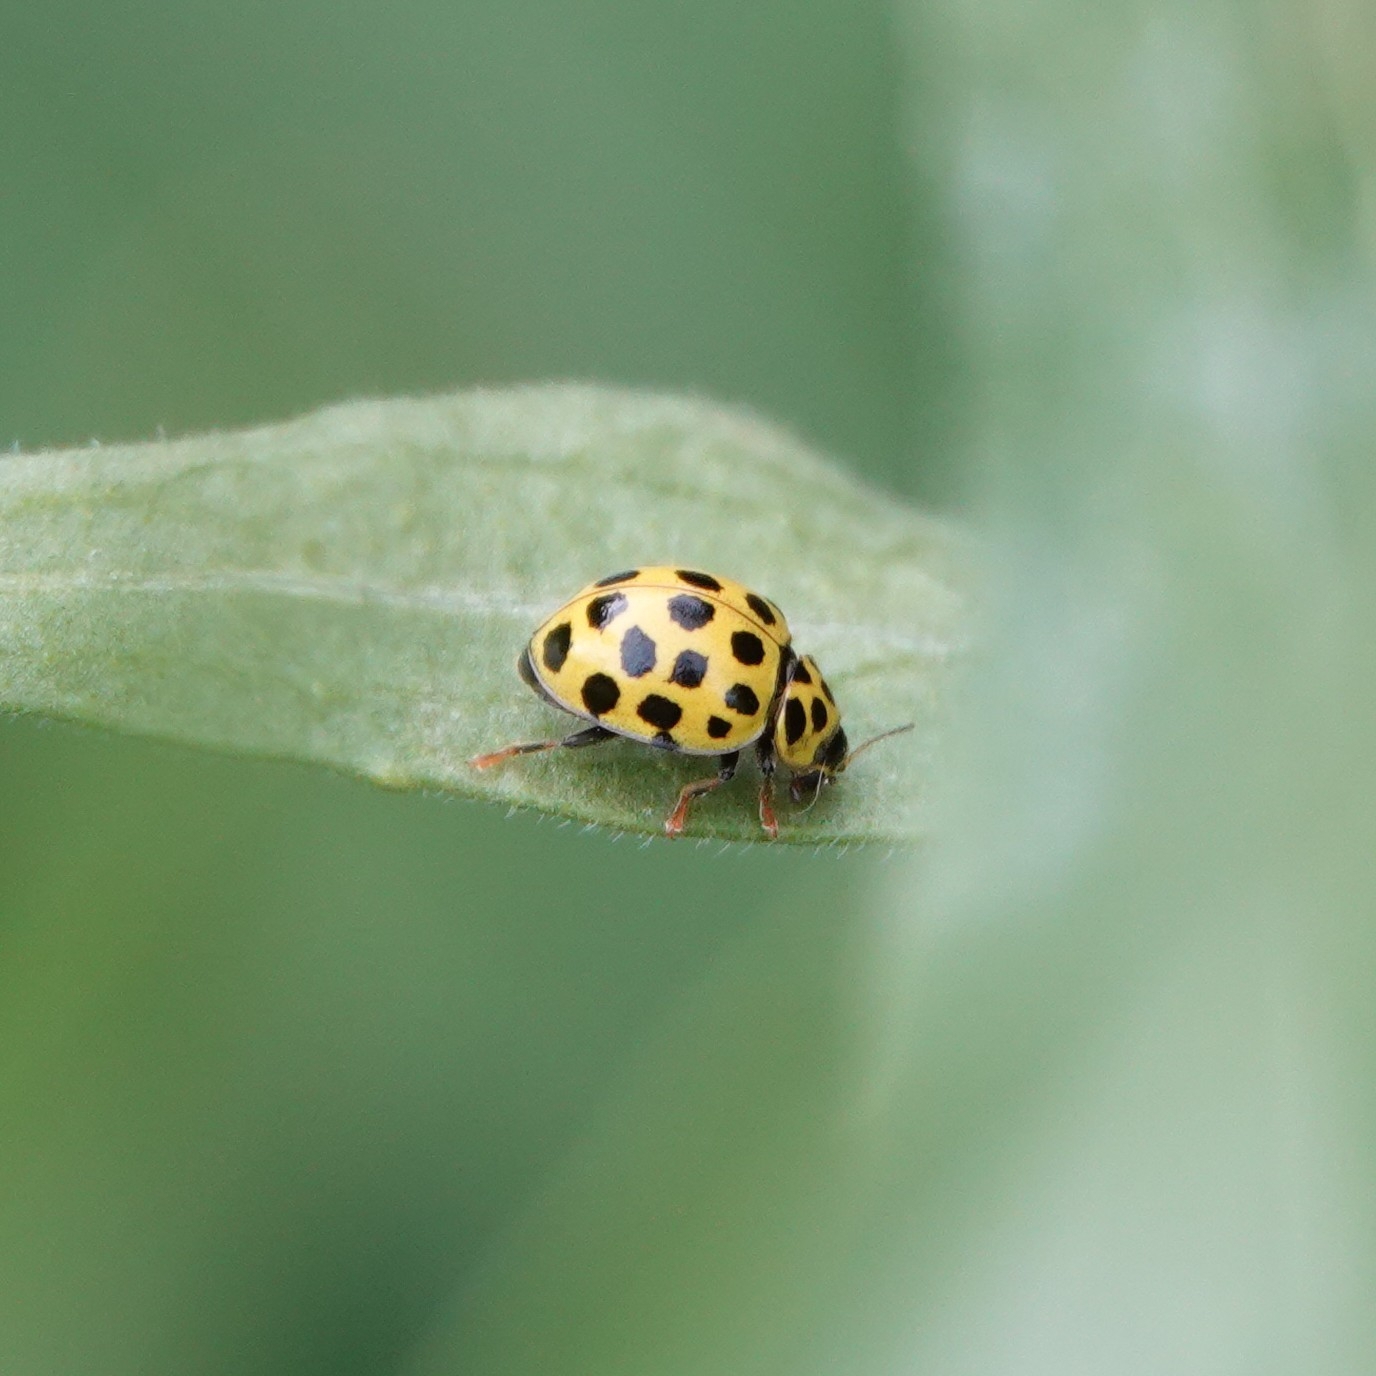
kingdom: Animalia
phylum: Arthropoda
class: Insecta
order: Coleoptera
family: Coccinellidae
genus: Psyllobora
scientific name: Psyllobora vigintiduopunctata
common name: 22-spot ladybird
